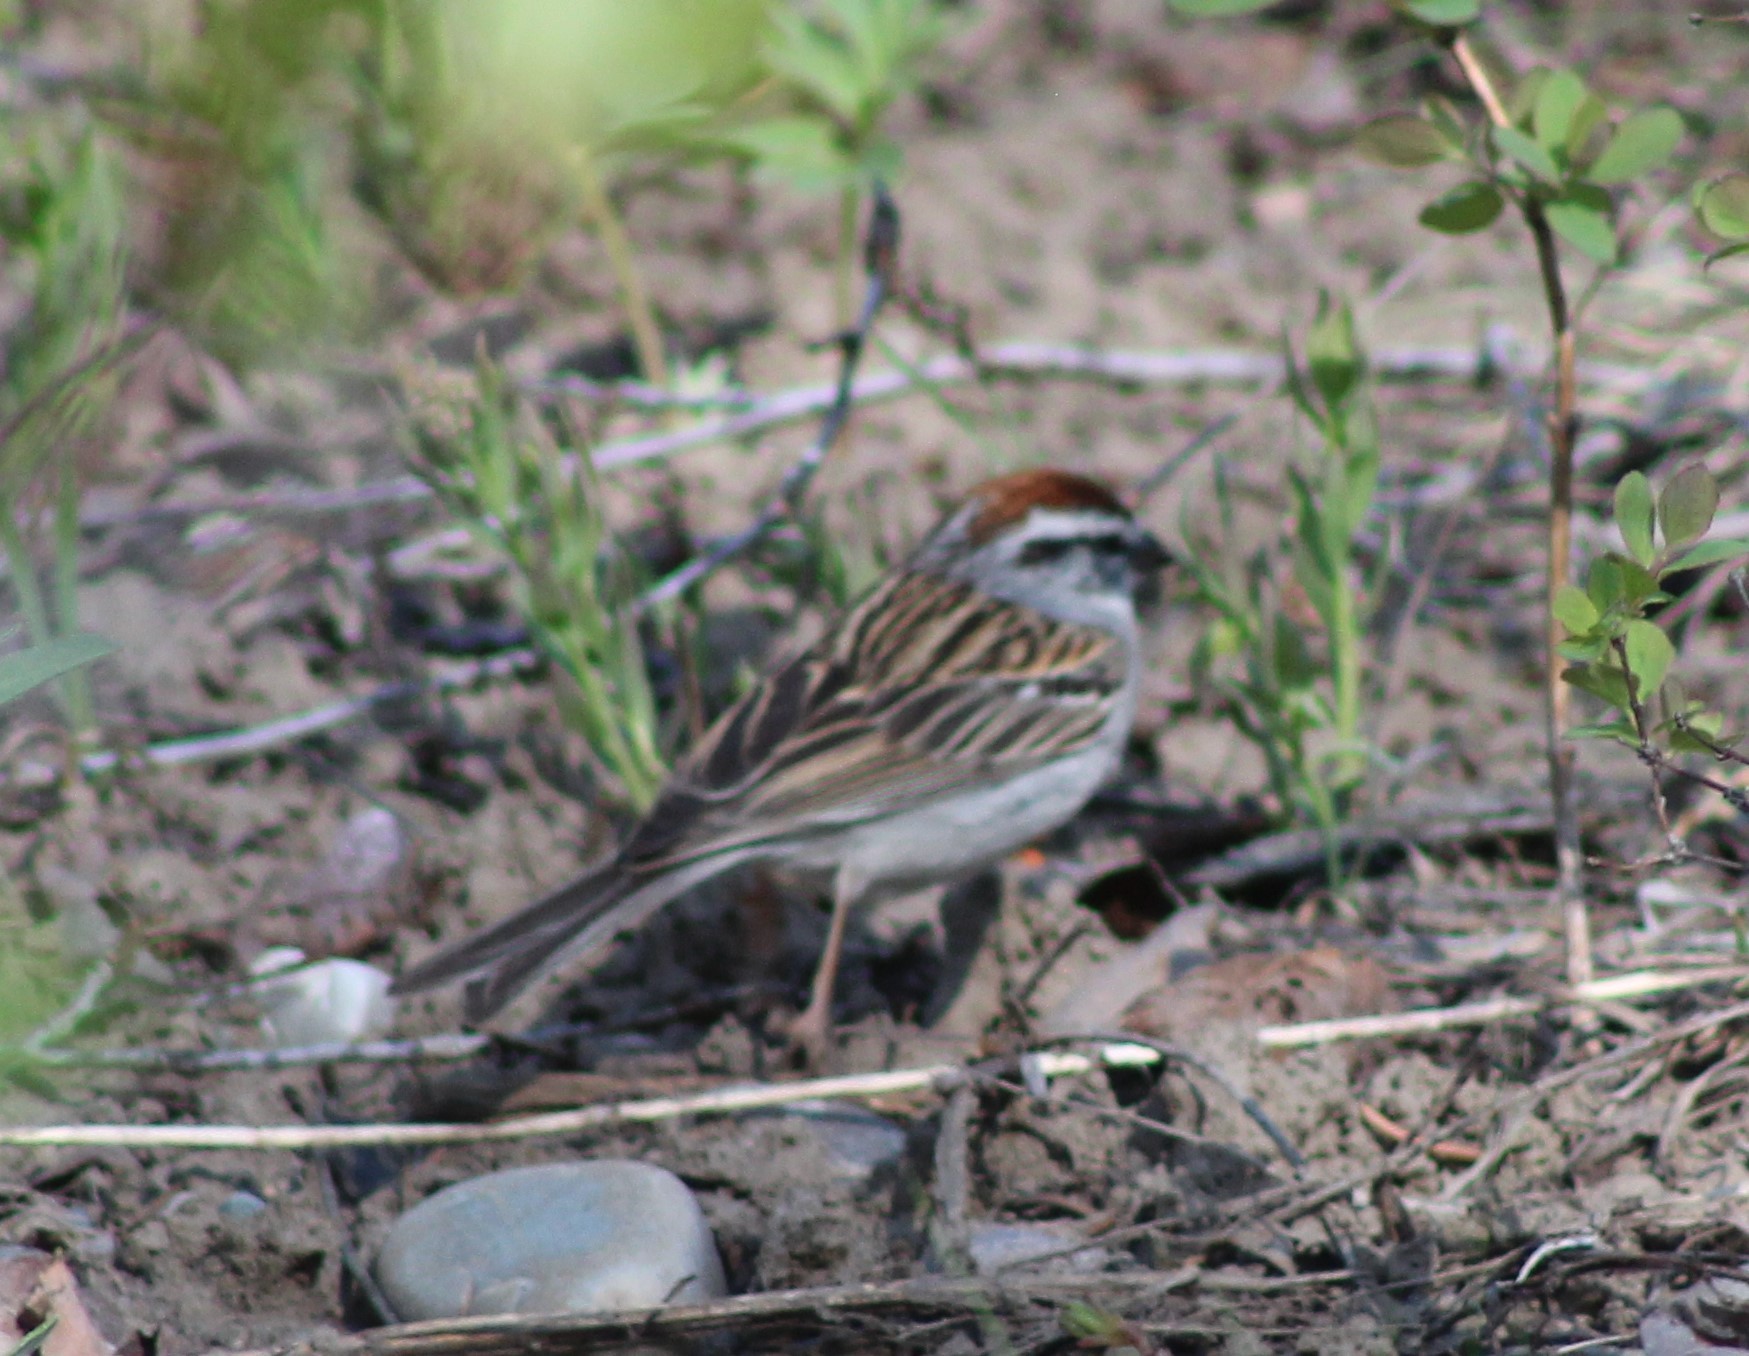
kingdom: Animalia
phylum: Chordata
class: Aves
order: Passeriformes
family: Passerellidae
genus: Spizella
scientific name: Spizella passerina
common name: Chipping sparrow
